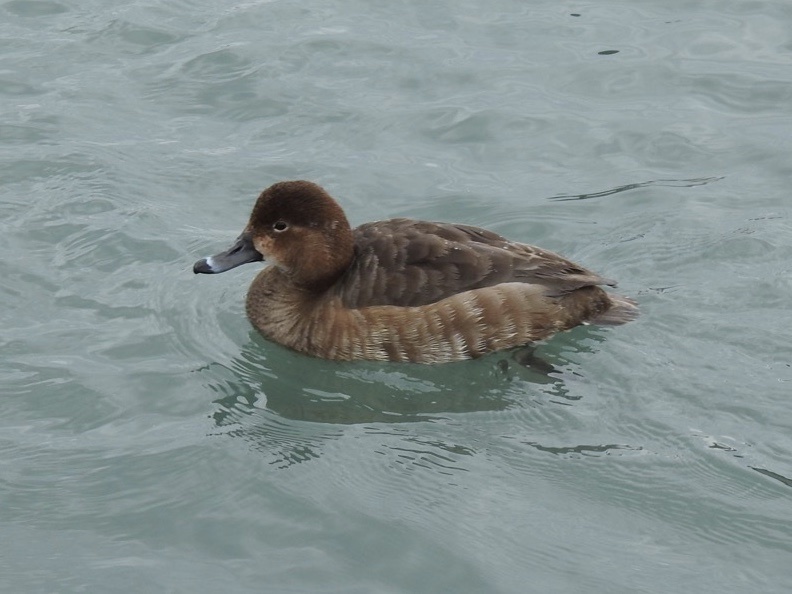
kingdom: Animalia
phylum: Chordata
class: Aves
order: Anseriformes
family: Anatidae
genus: Aythya
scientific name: Aythya americana
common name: Redhead
